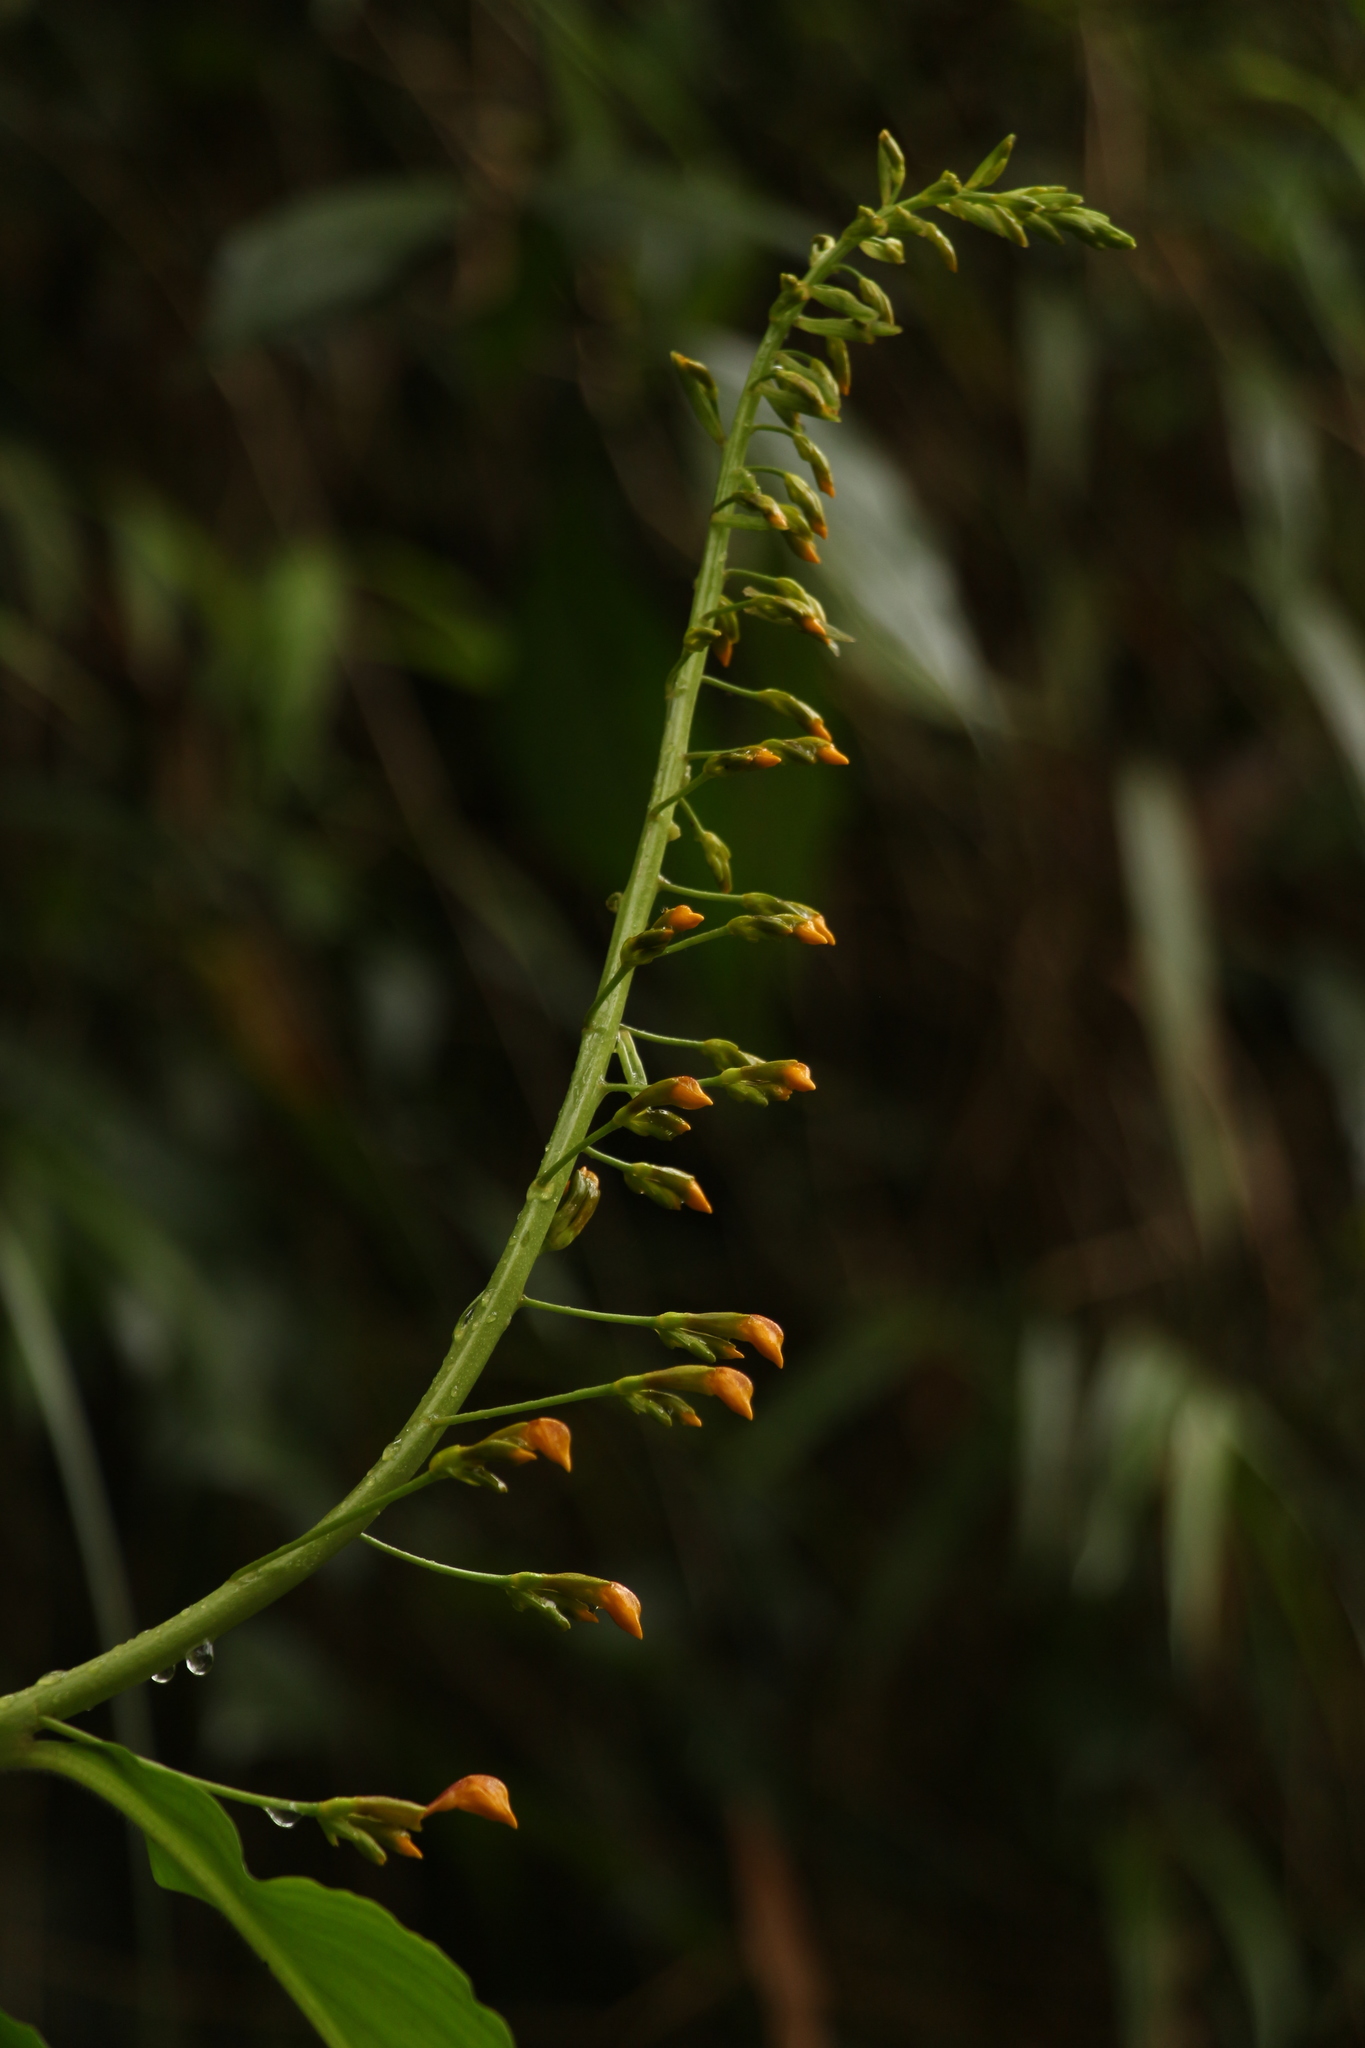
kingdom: Plantae
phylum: Tracheophyta
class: Liliopsida
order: Zingiberales
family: Zingiberaceae
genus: Globba
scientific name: Globba andersonii
